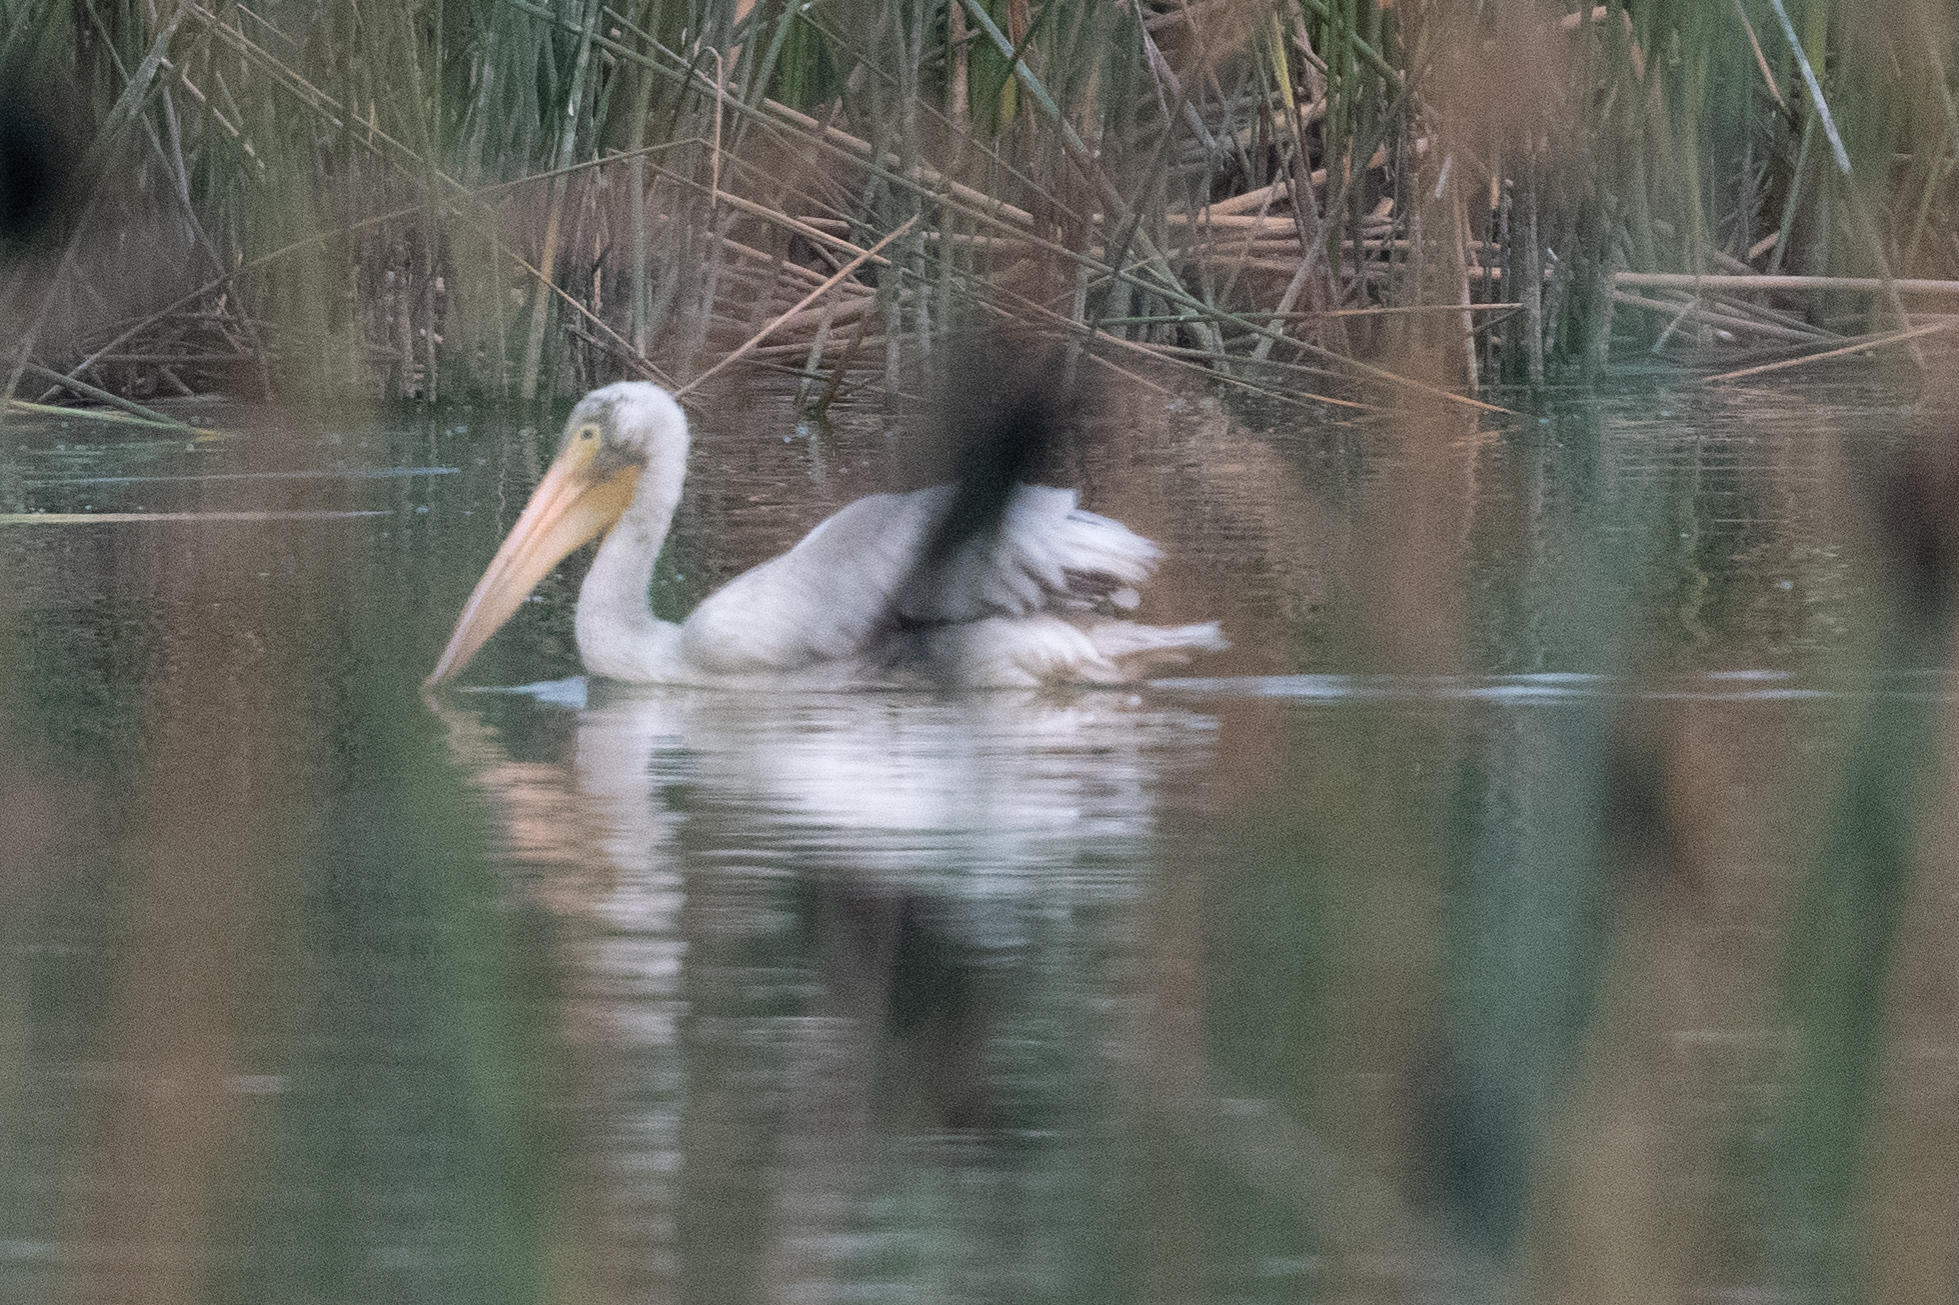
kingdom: Animalia
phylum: Chordata
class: Aves
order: Pelecaniformes
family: Pelecanidae
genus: Pelecanus
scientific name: Pelecanus erythrorhynchos
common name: American white pelican
